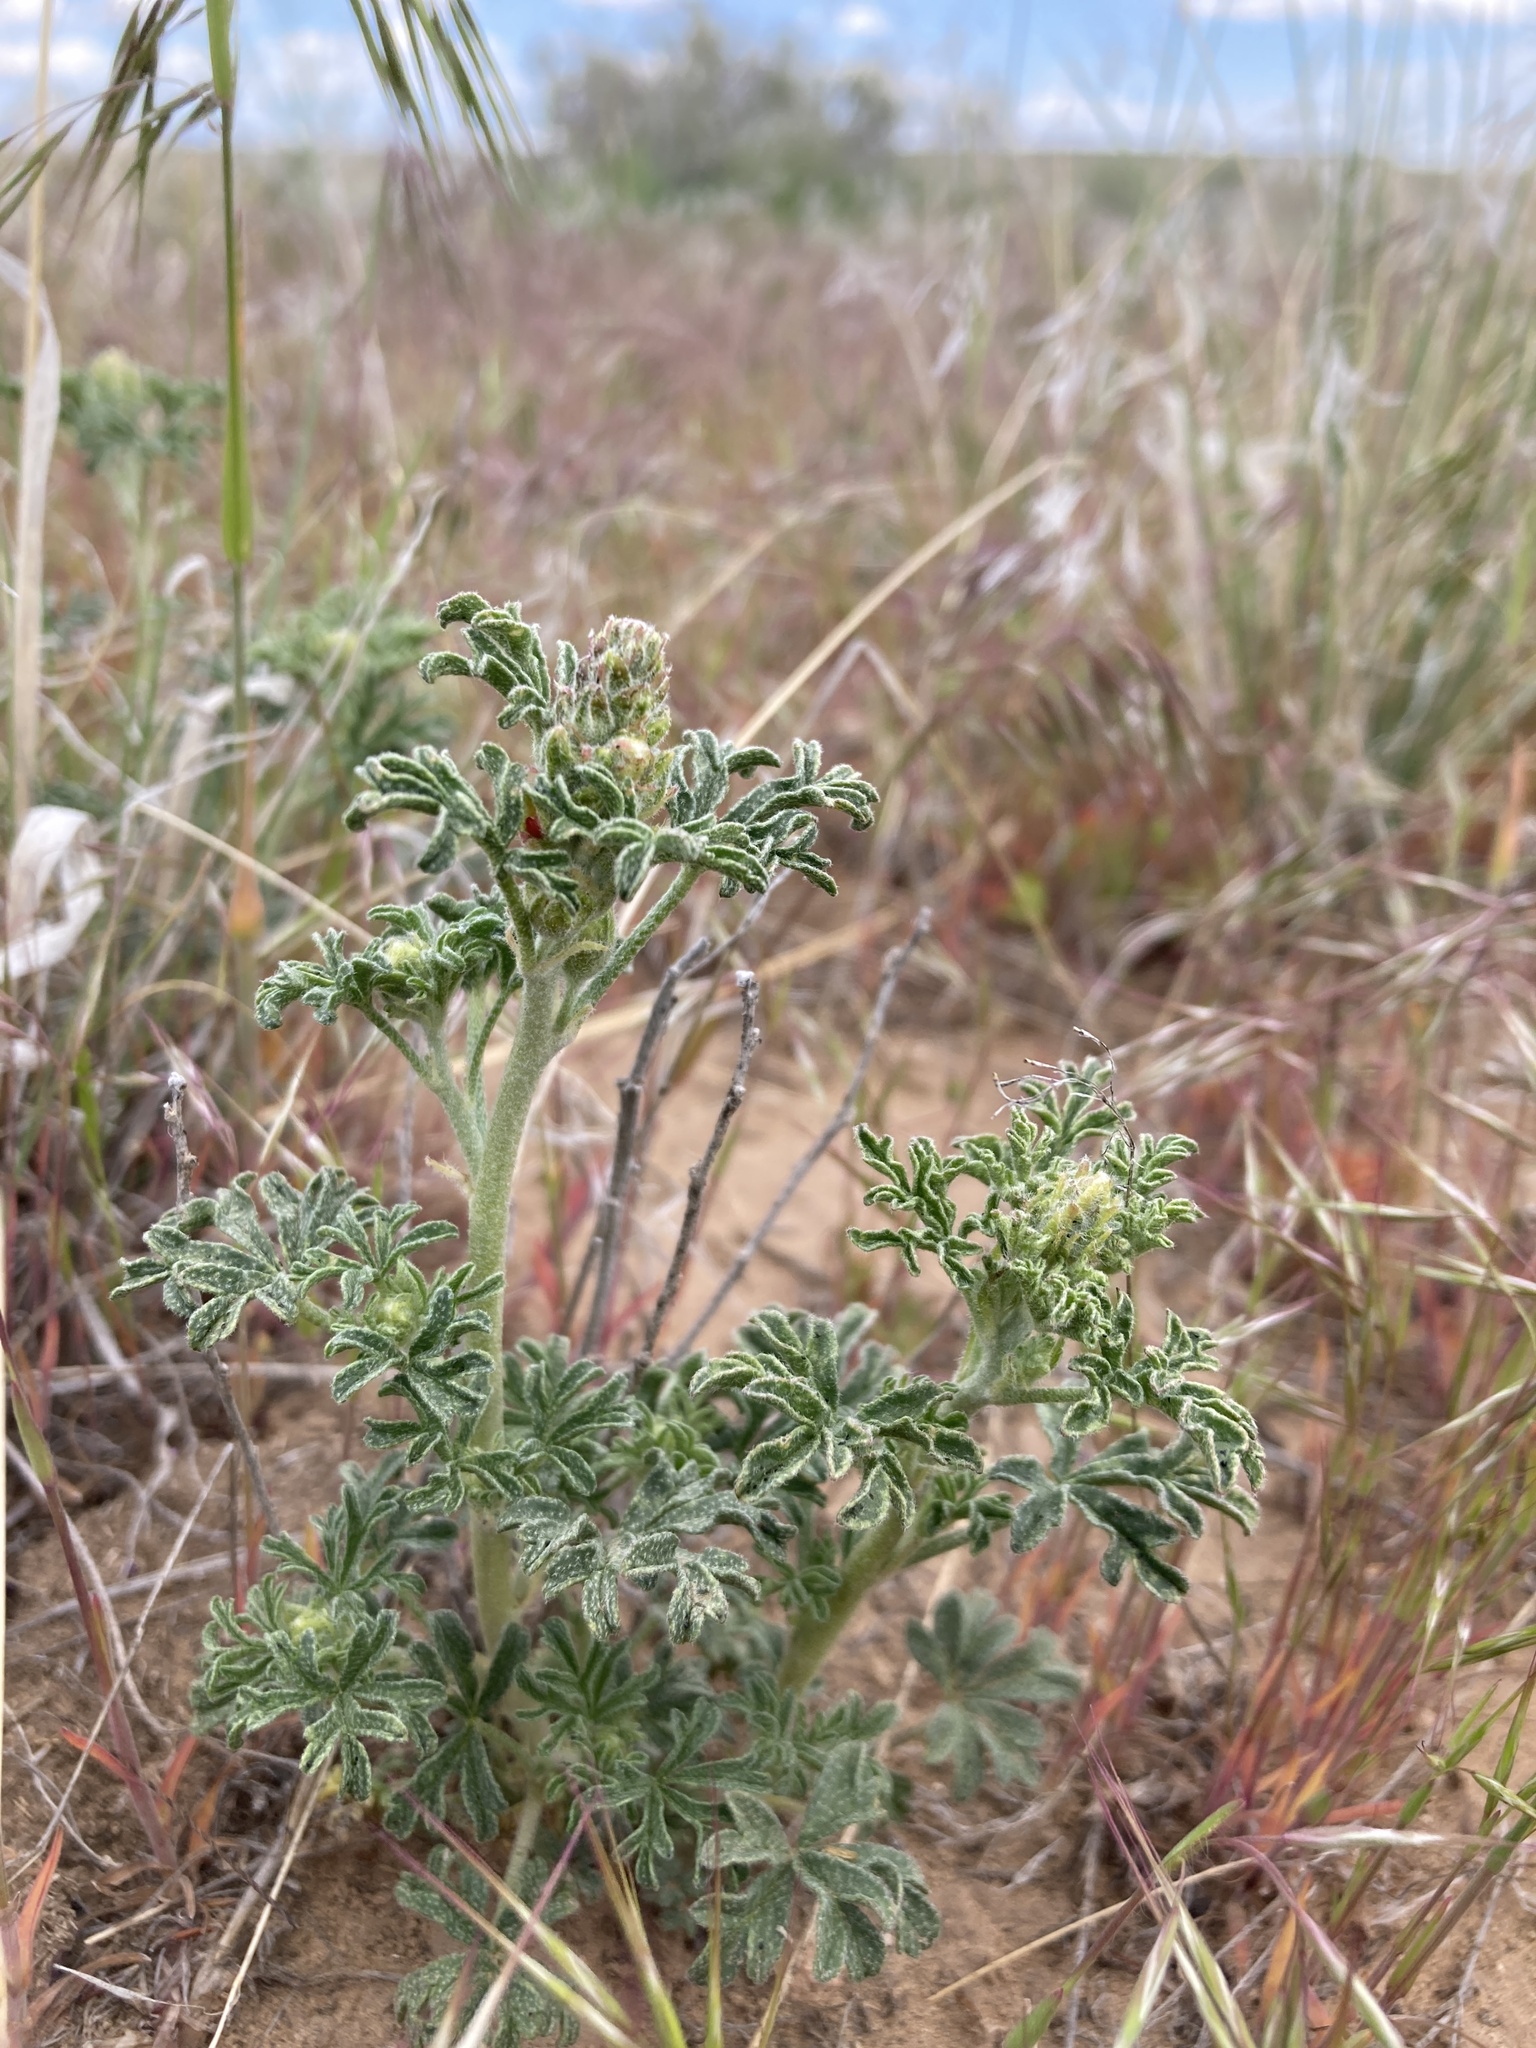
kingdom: Plantae
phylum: Tracheophyta
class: Magnoliopsida
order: Malvales
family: Malvaceae
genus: Sphaeralcea
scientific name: Sphaeralcea coccinea
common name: Moss-rose
